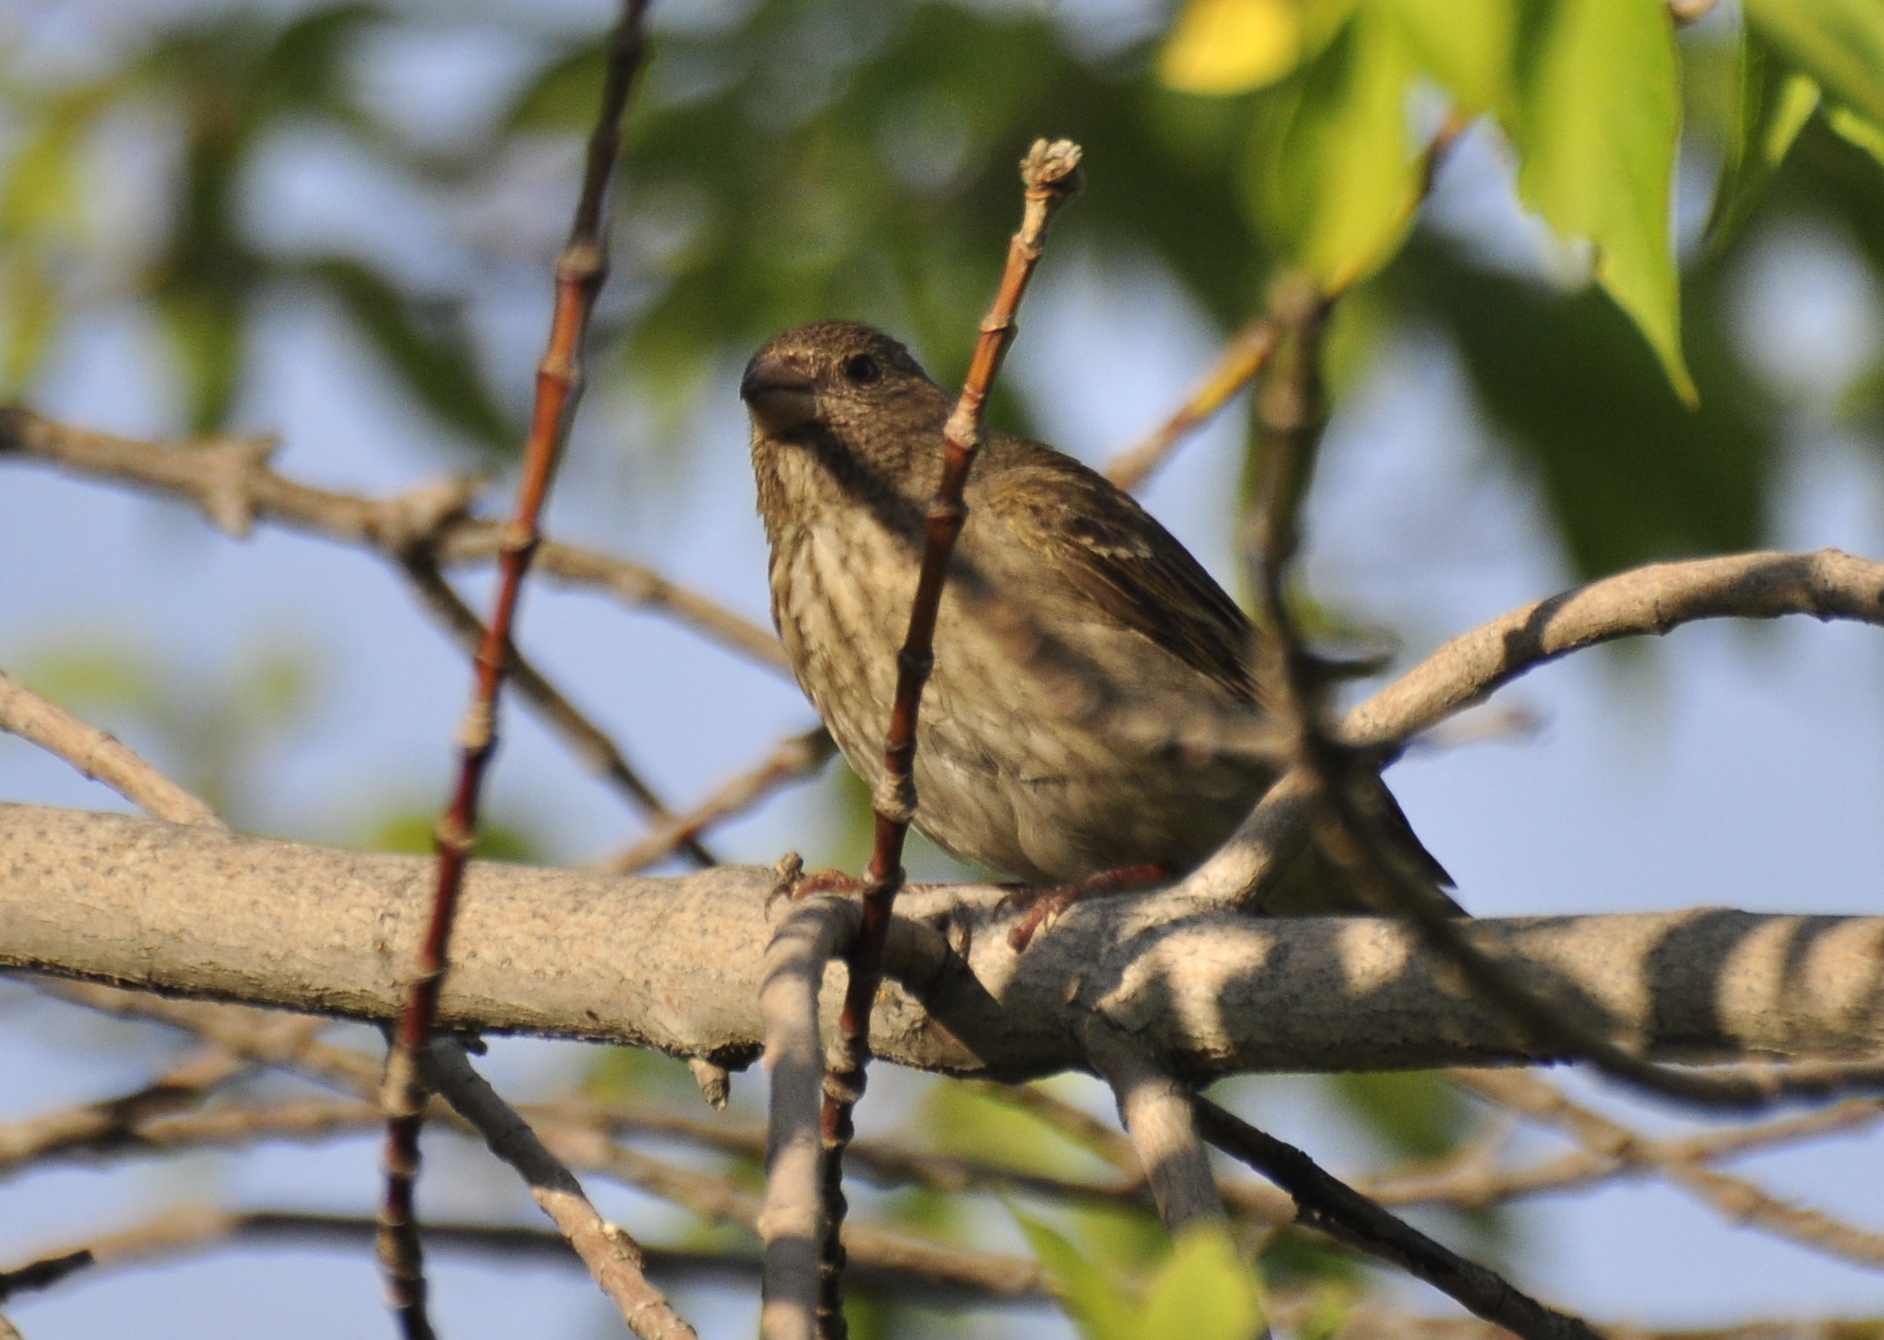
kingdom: Animalia
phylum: Chordata
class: Aves
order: Passeriformes
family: Fringillidae
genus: Carpodacus
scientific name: Carpodacus erythrinus
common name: Common rosefinch
